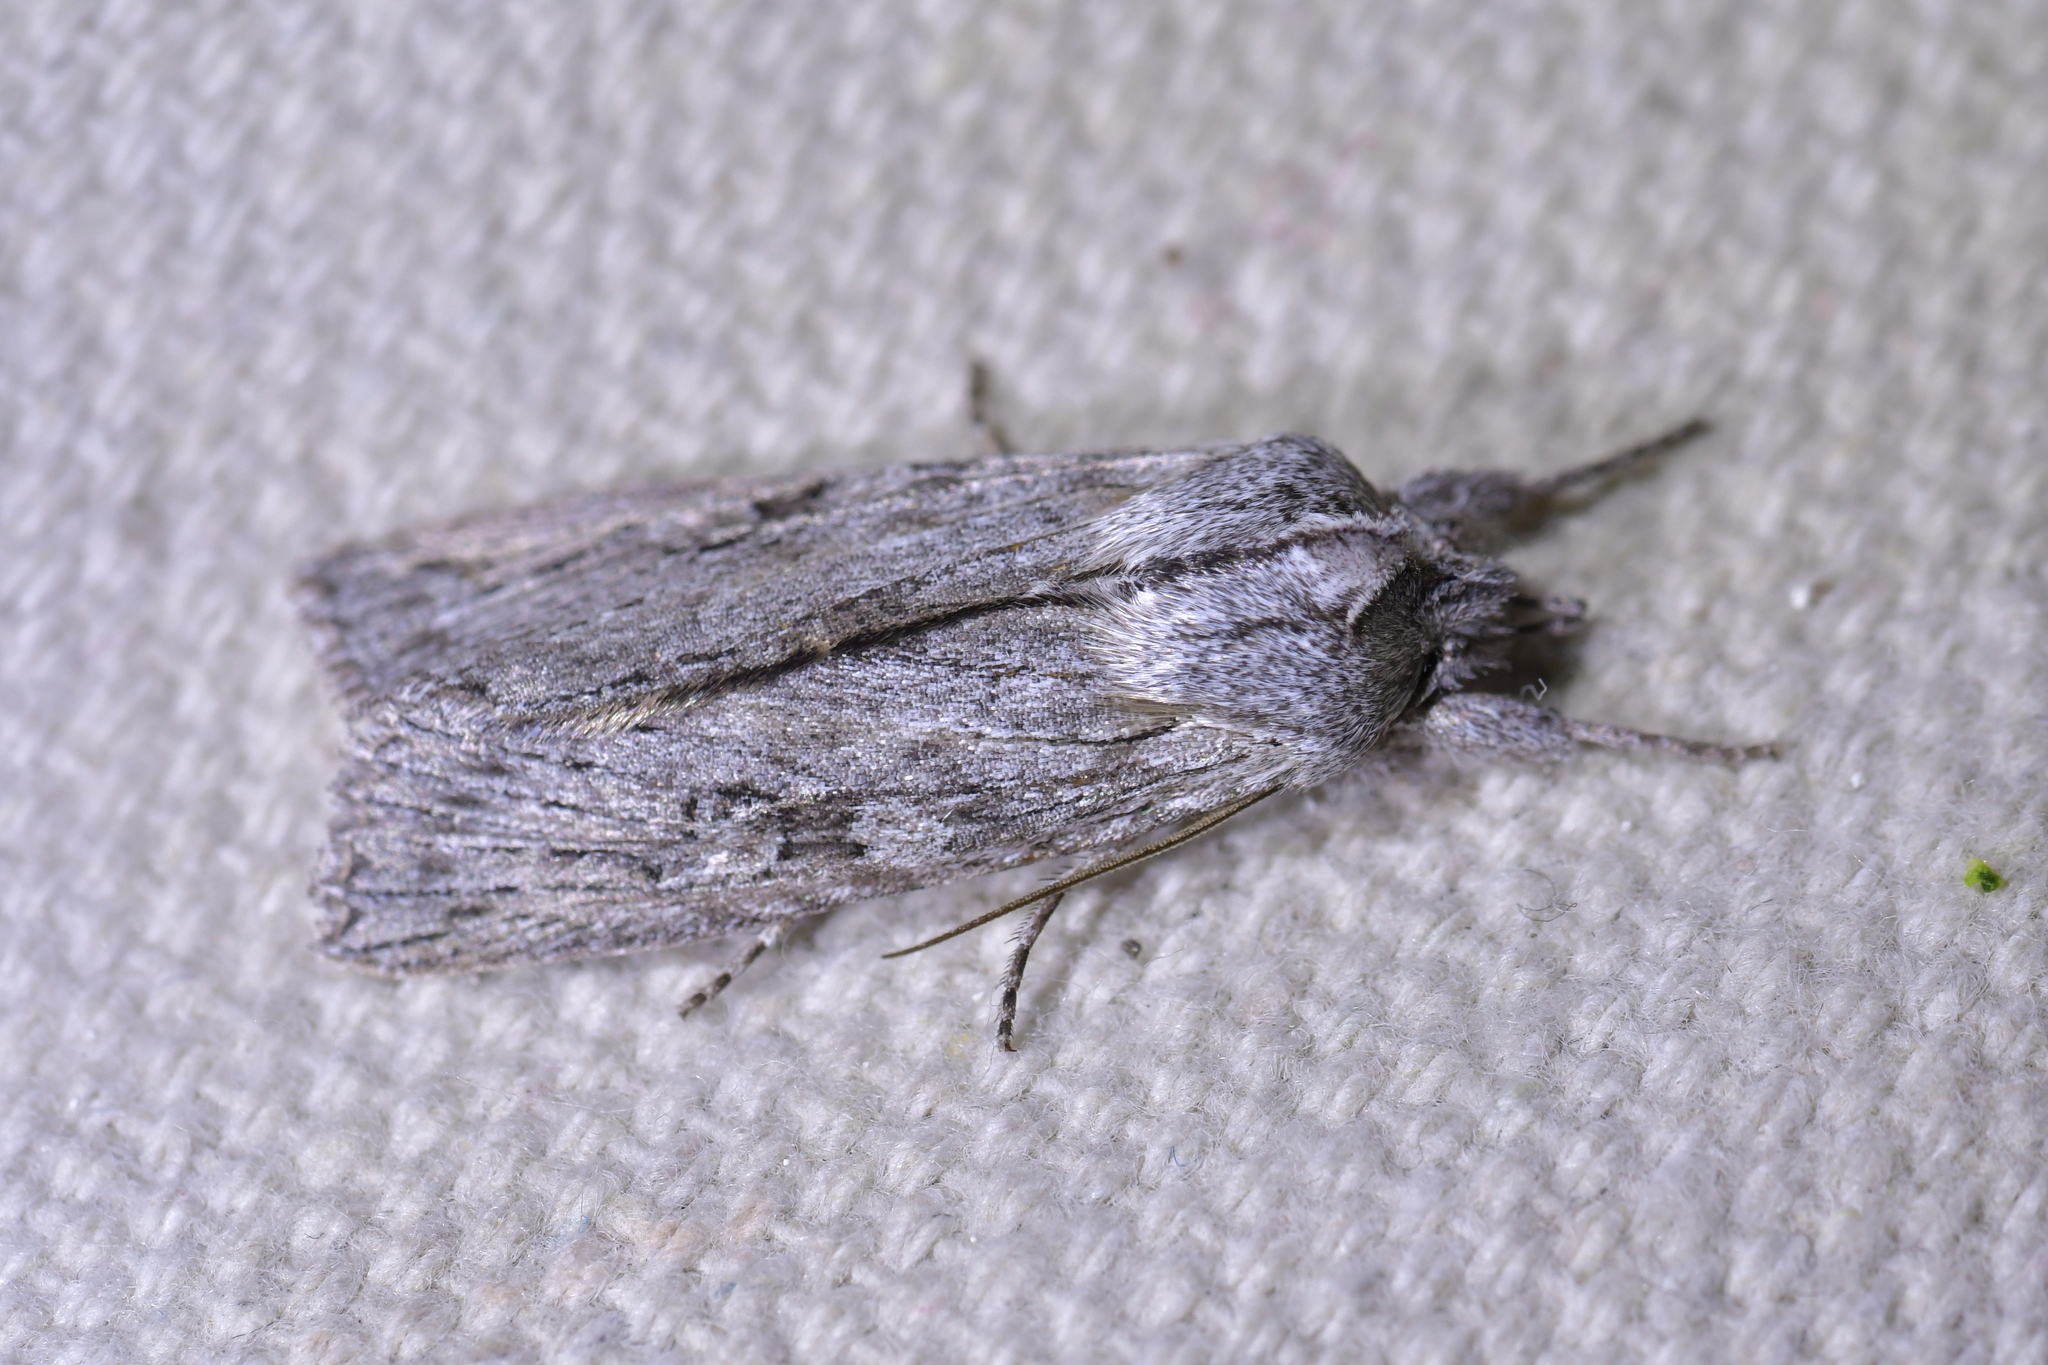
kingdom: Animalia
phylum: Arthropoda
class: Insecta
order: Lepidoptera
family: Noctuidae
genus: Physetica
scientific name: Physetica phricias
